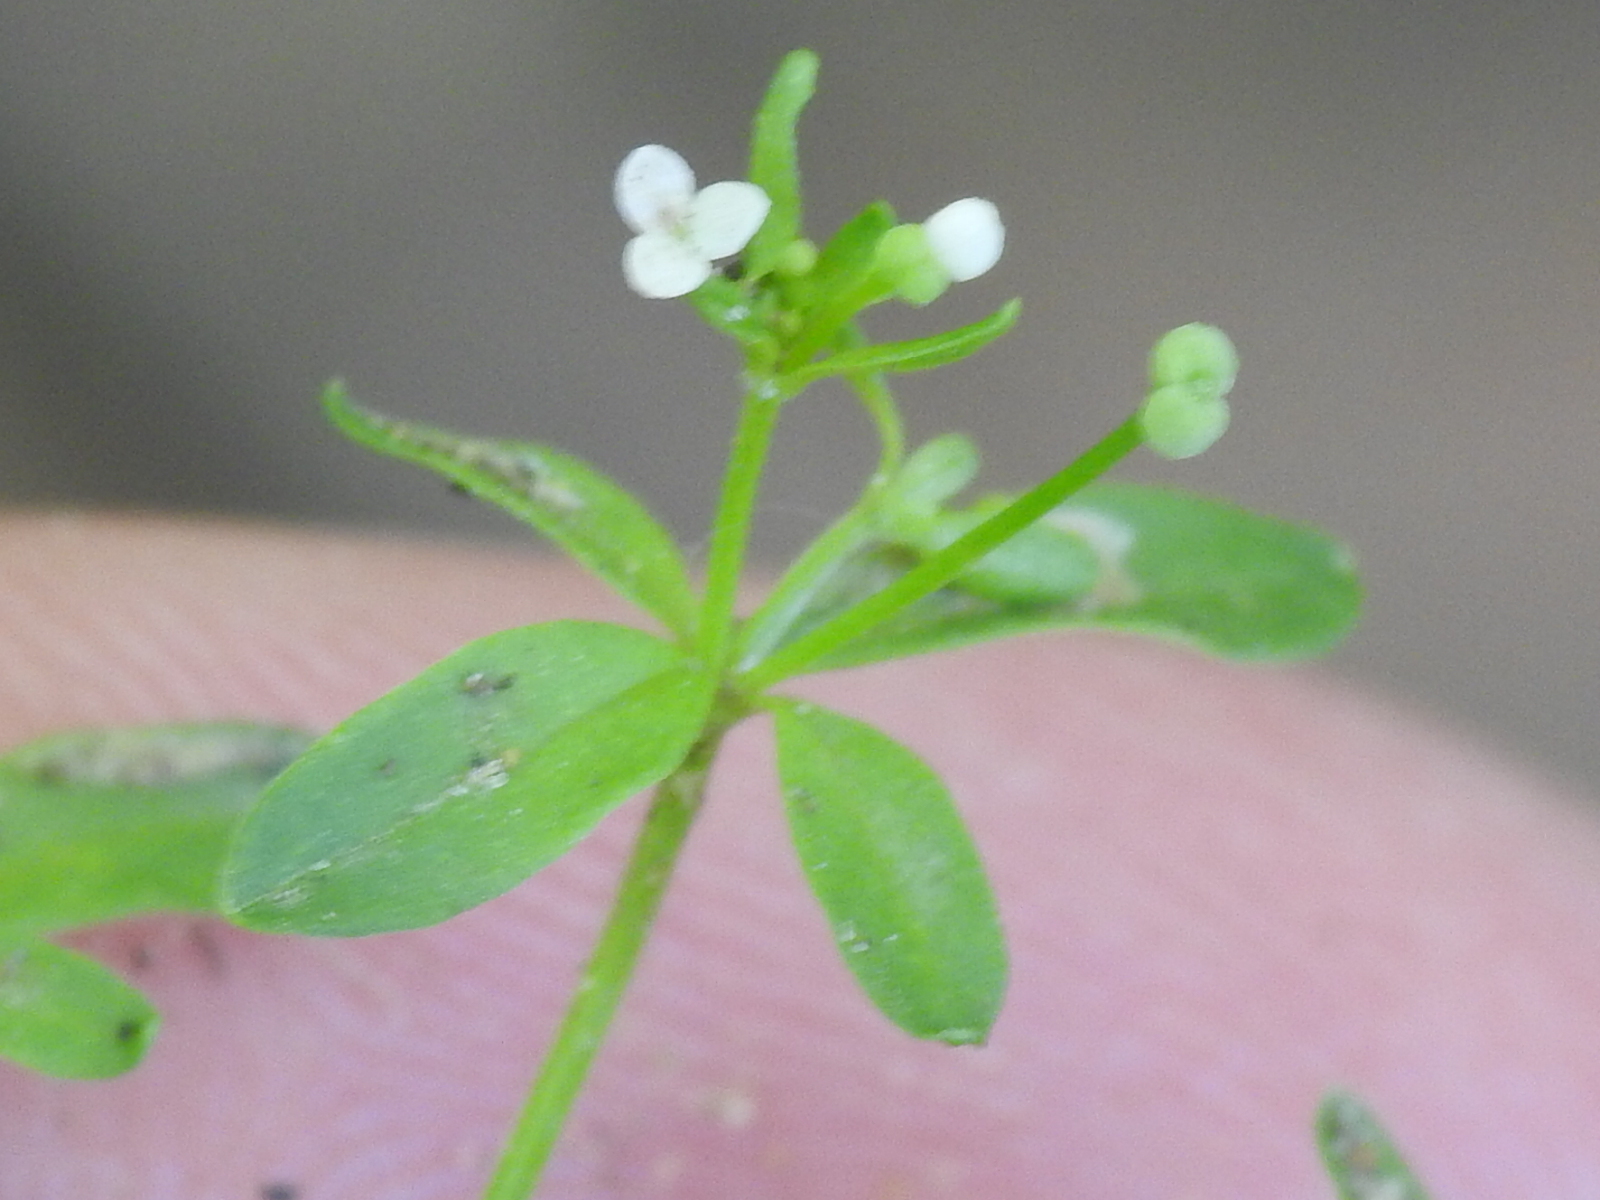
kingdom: Plantae
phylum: Tracheophyta
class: Magnoliopsida
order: Gentianales
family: Rubiaceae
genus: Galium
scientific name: Galium tinctorium
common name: Bedstraw
